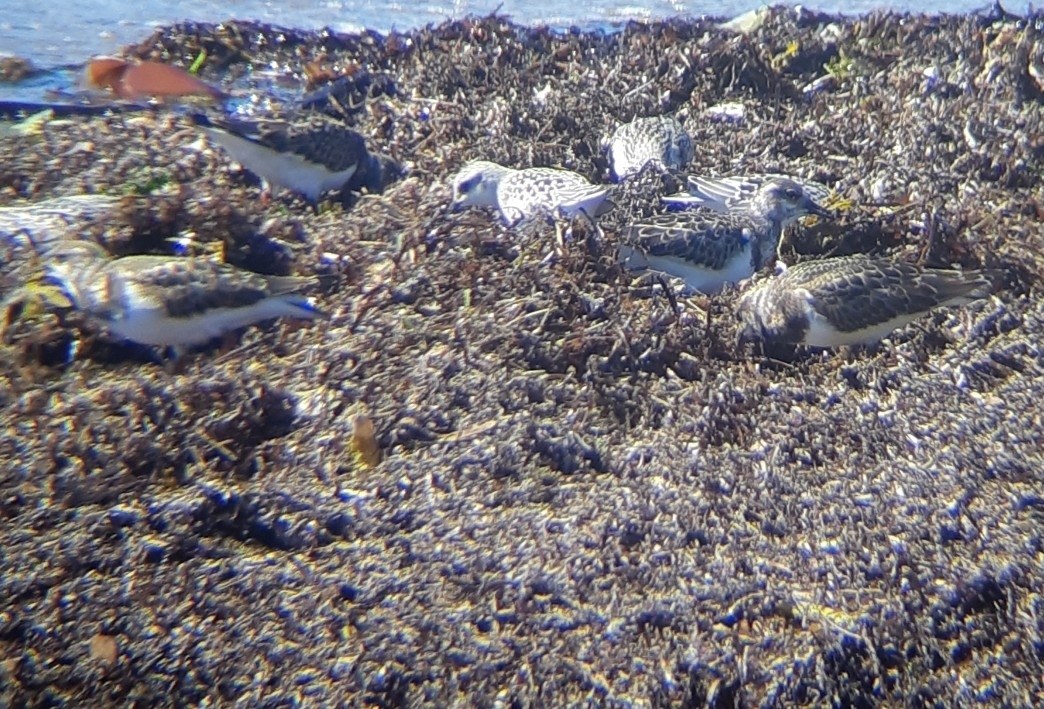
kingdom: Animalia
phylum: Chordata
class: Aves
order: Charadriiformes
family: Scolopacidae
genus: Arenaria
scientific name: Arenaria interpres
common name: Ruddy turnstone
